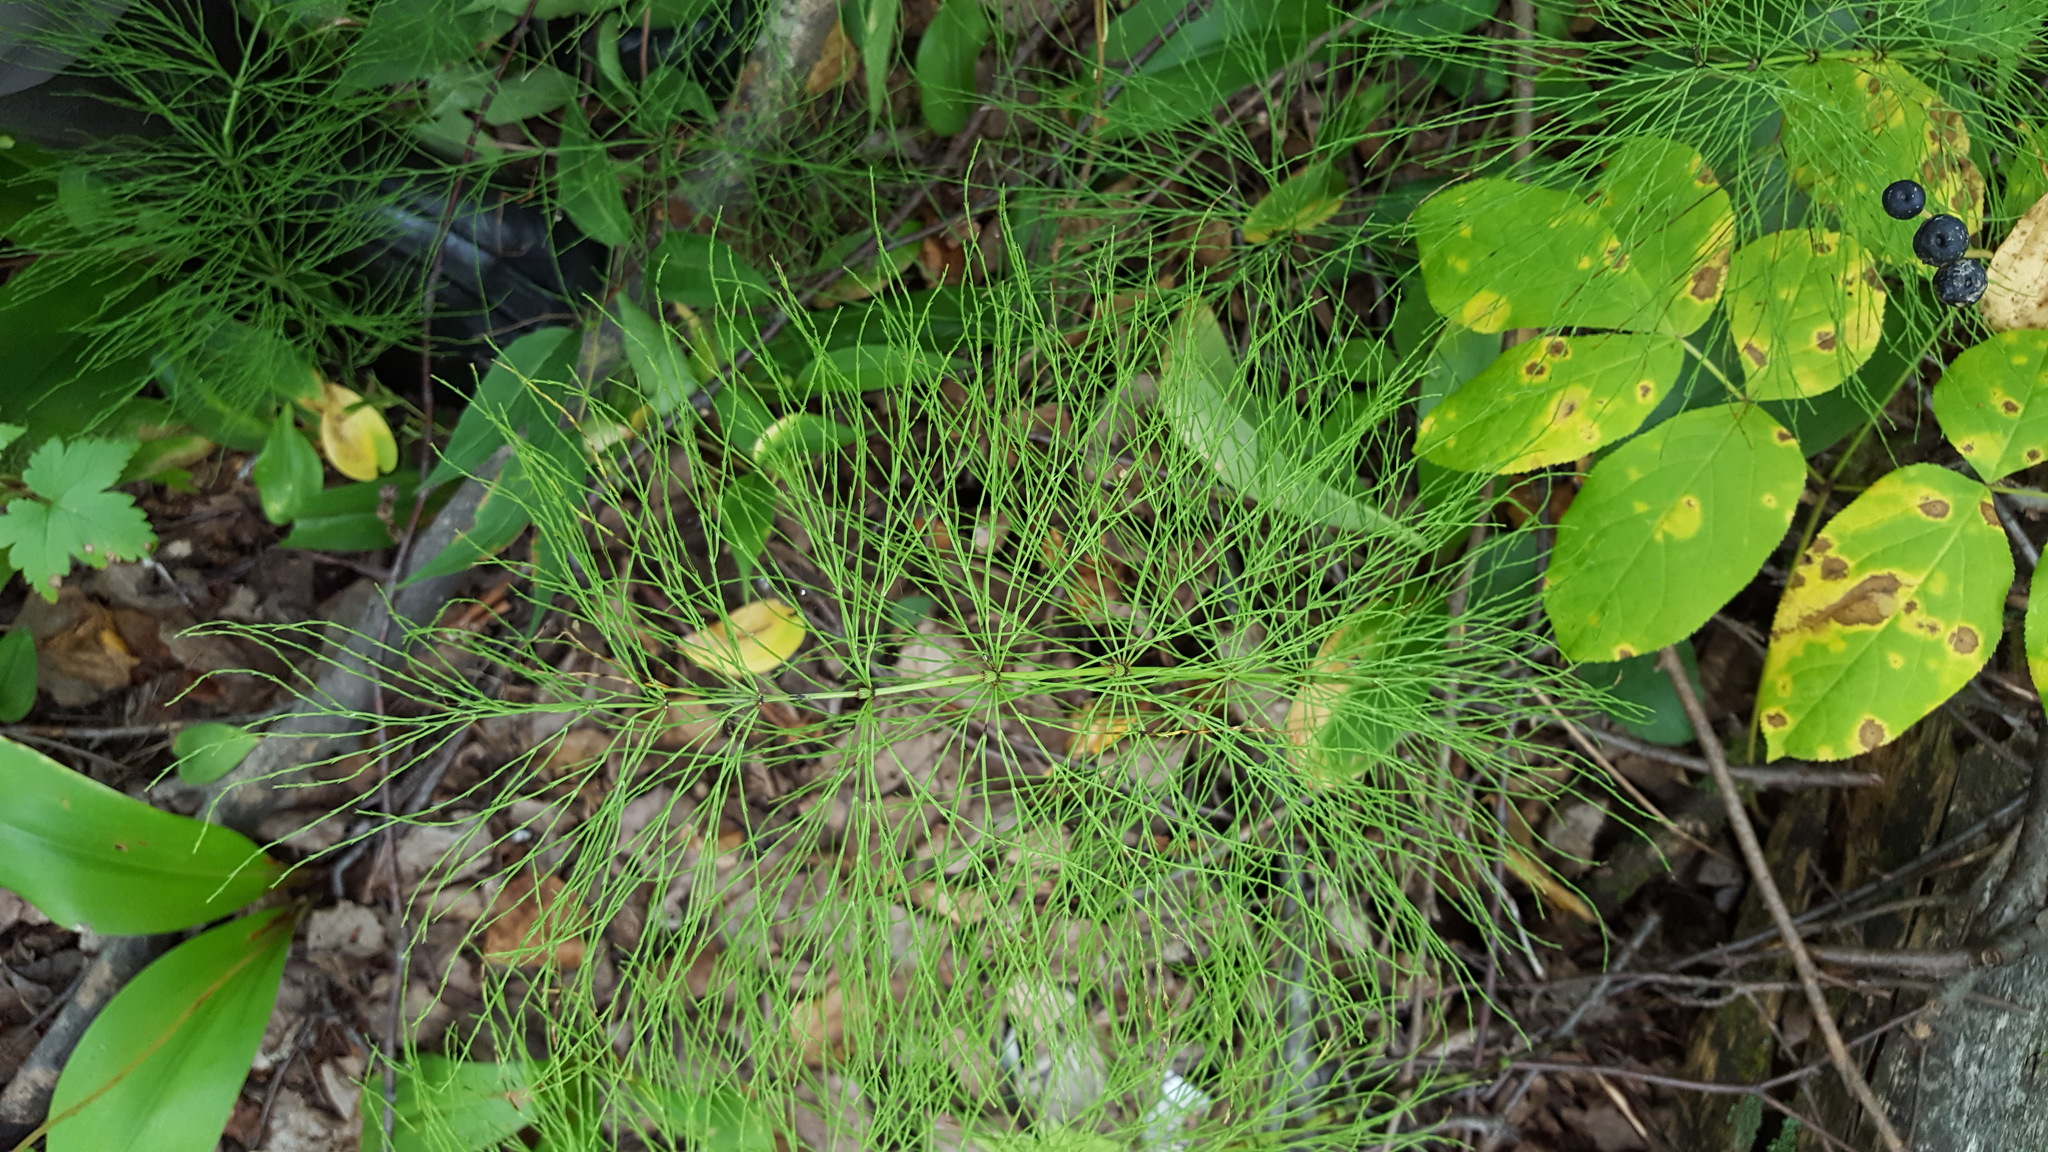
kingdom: Plantae
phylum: Tracheophyta
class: Polypodiopsida
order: Equisetales
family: Equisetaceae
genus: Equisetum
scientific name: Equisetum sylvaticum
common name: Wood horsetail
